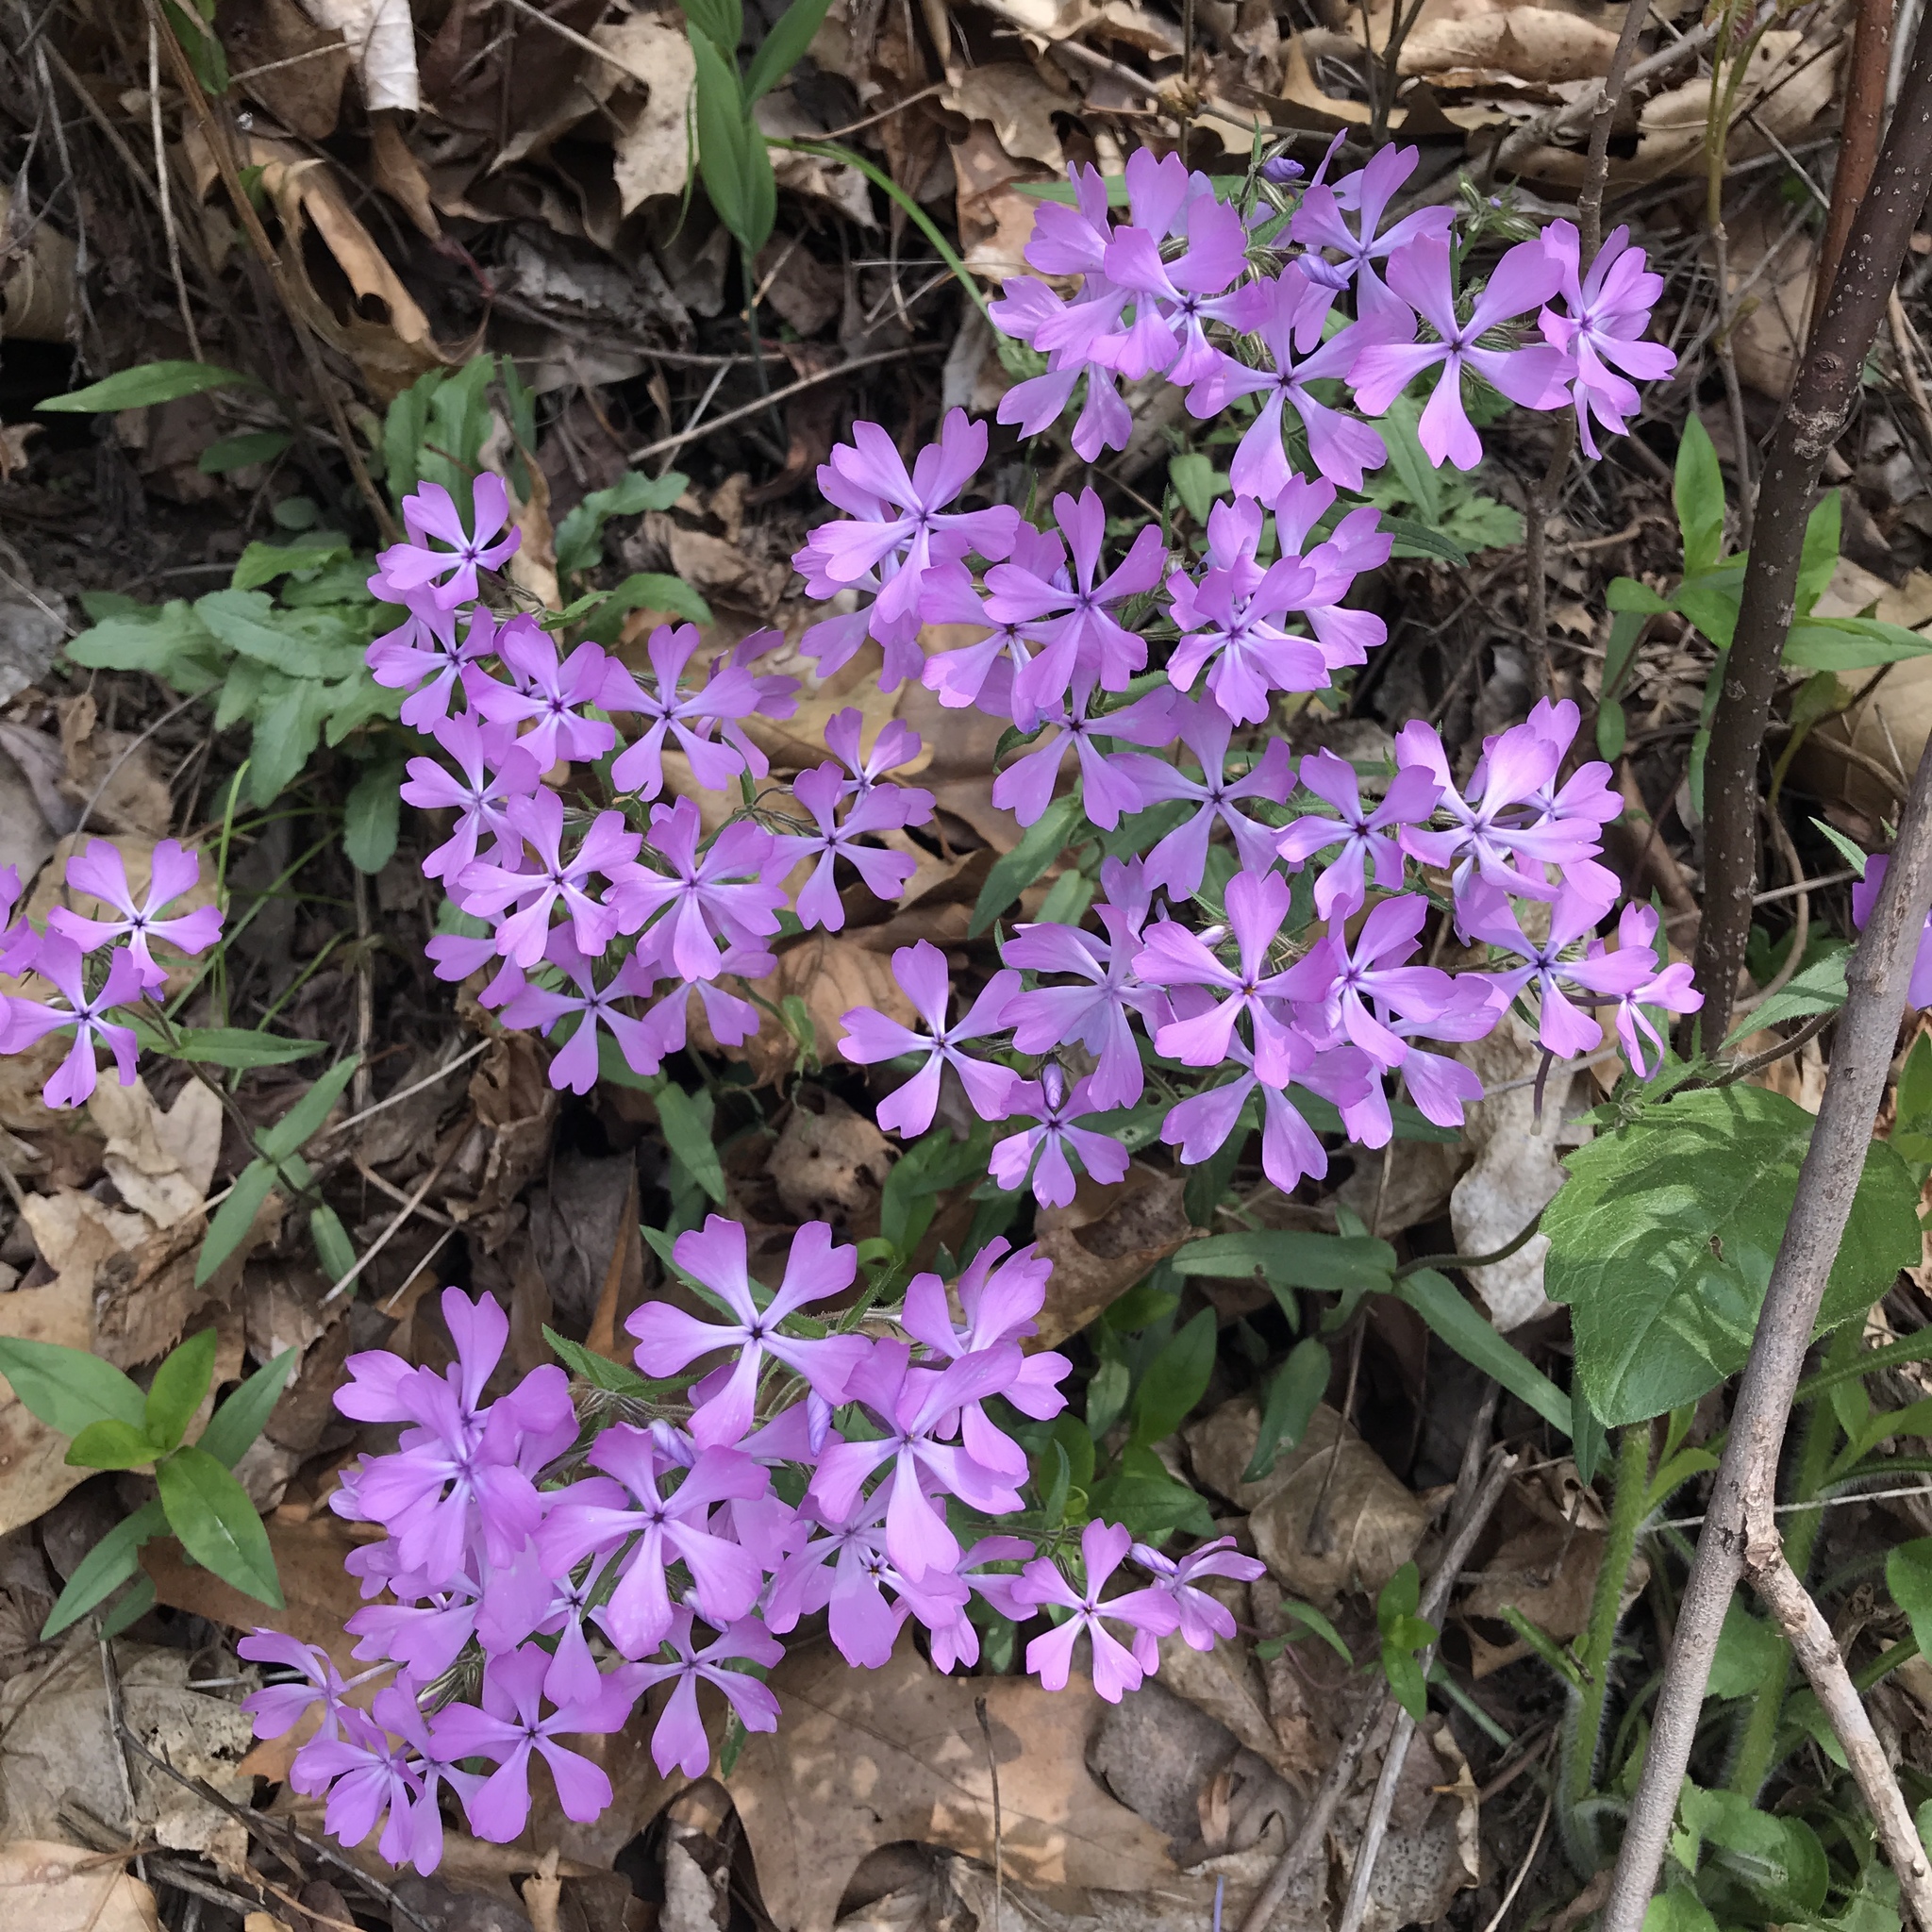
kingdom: Plantae
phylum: Tracheophyta
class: Magnoliopsida
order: Ericales
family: Polemoniaceae
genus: Phlox
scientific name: Phlox divaricata
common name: Blue phlox
